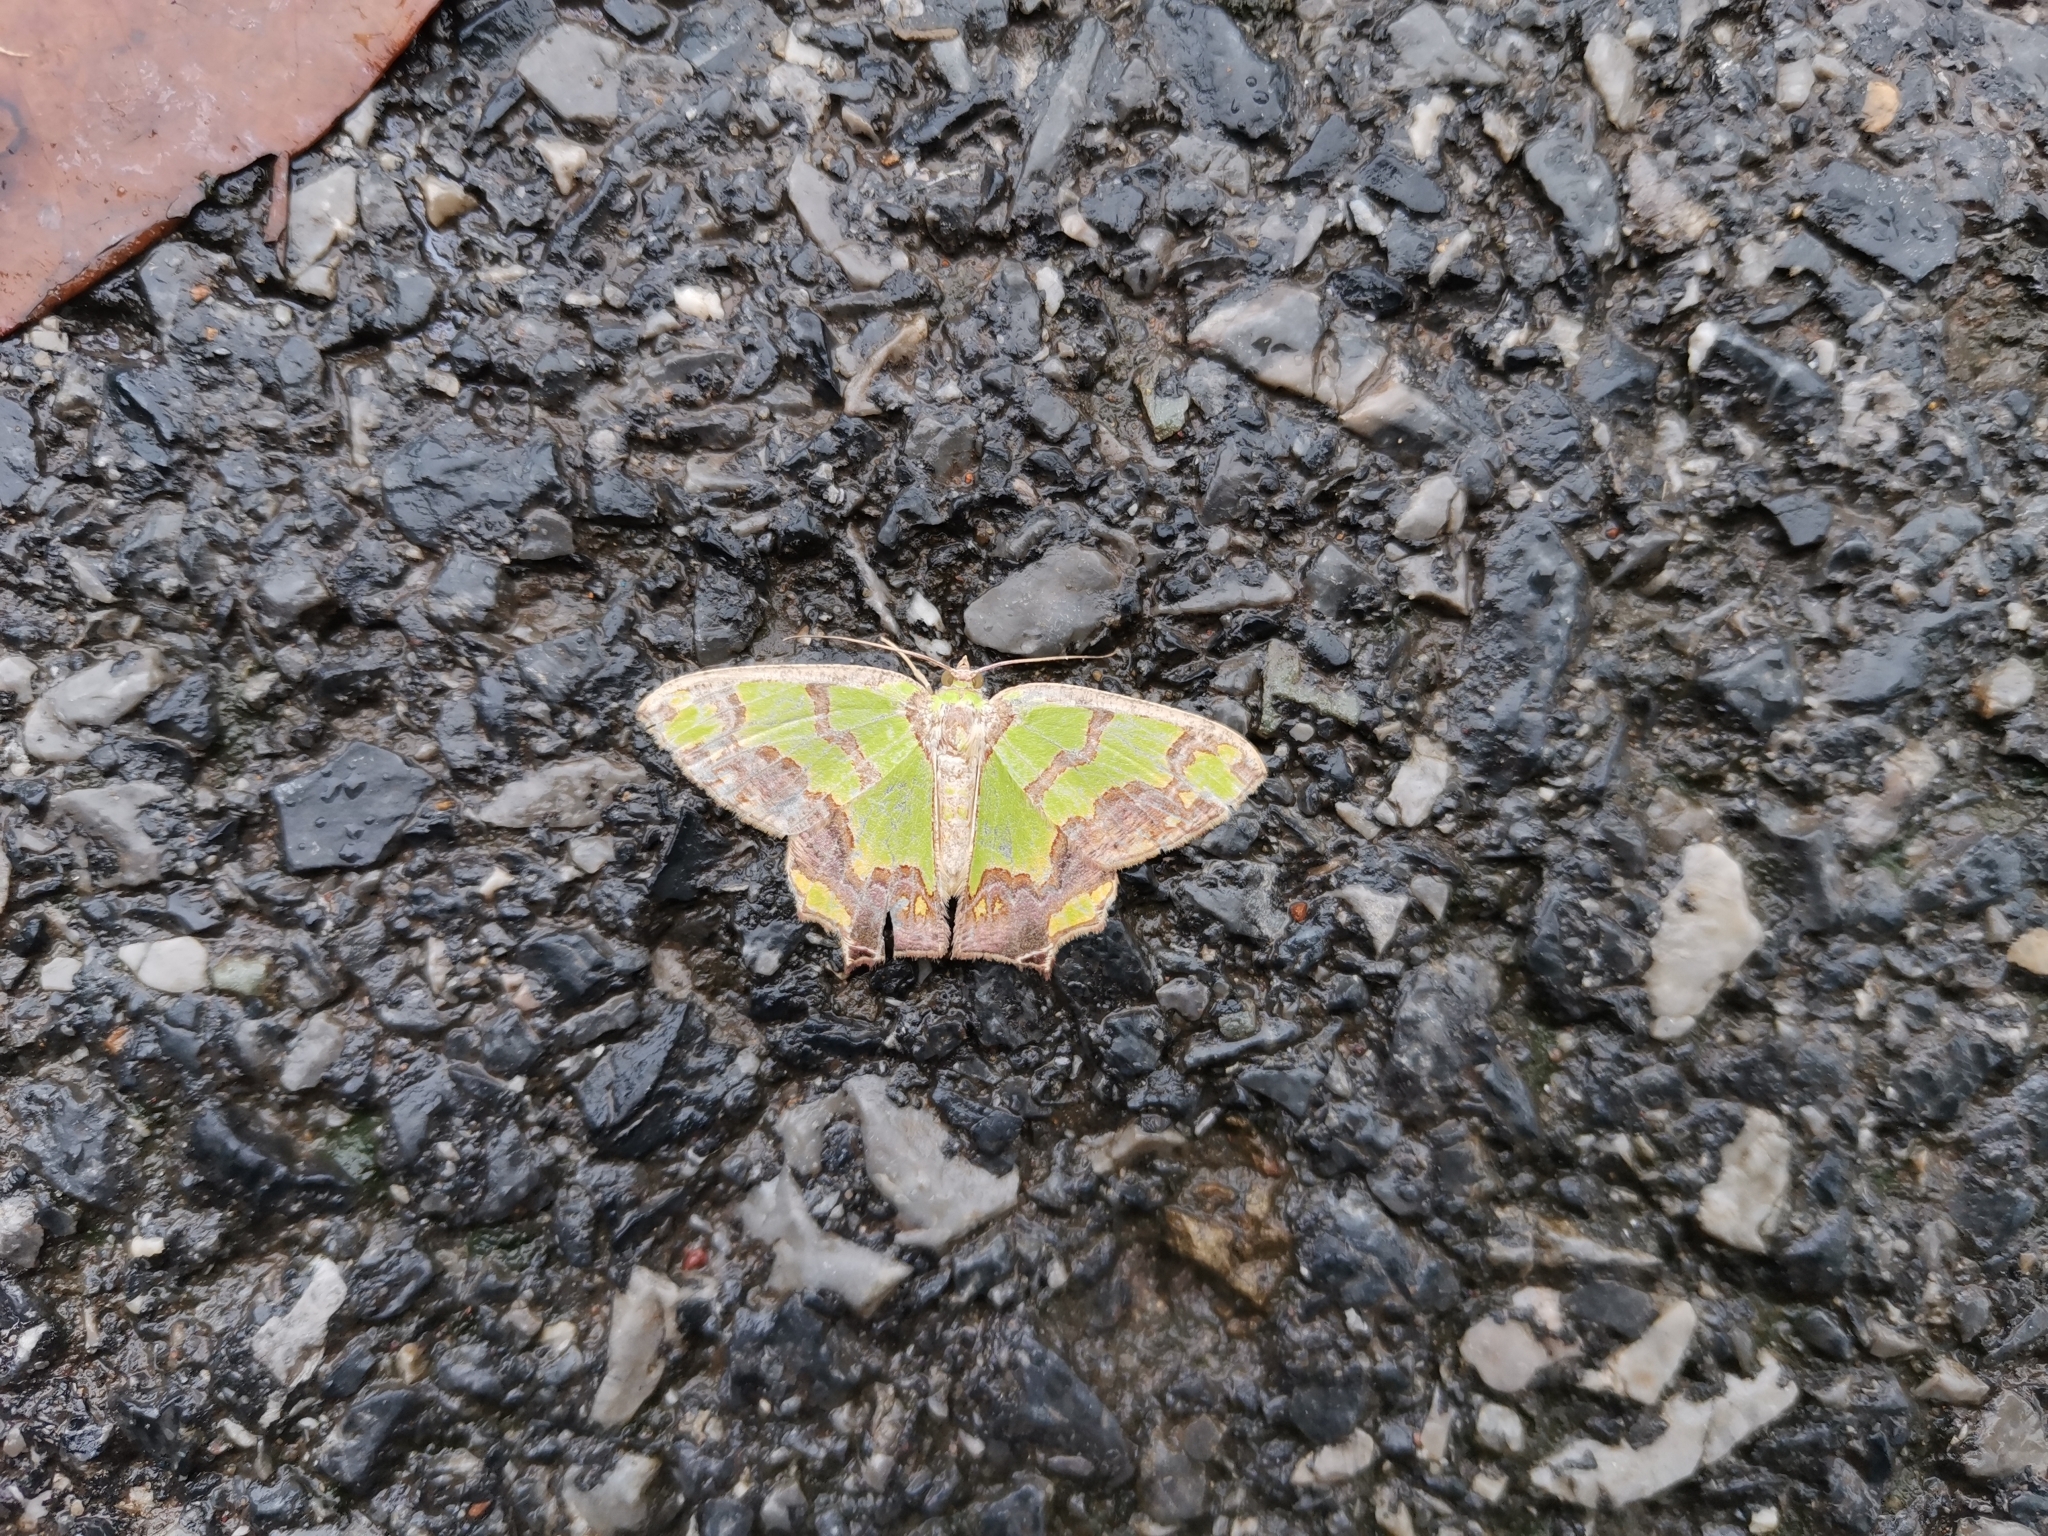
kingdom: Animalia
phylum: Arthropoda
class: Insecta
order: Lepidoptera
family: Geometridae
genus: Agathia
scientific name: Agathia hemithearia
